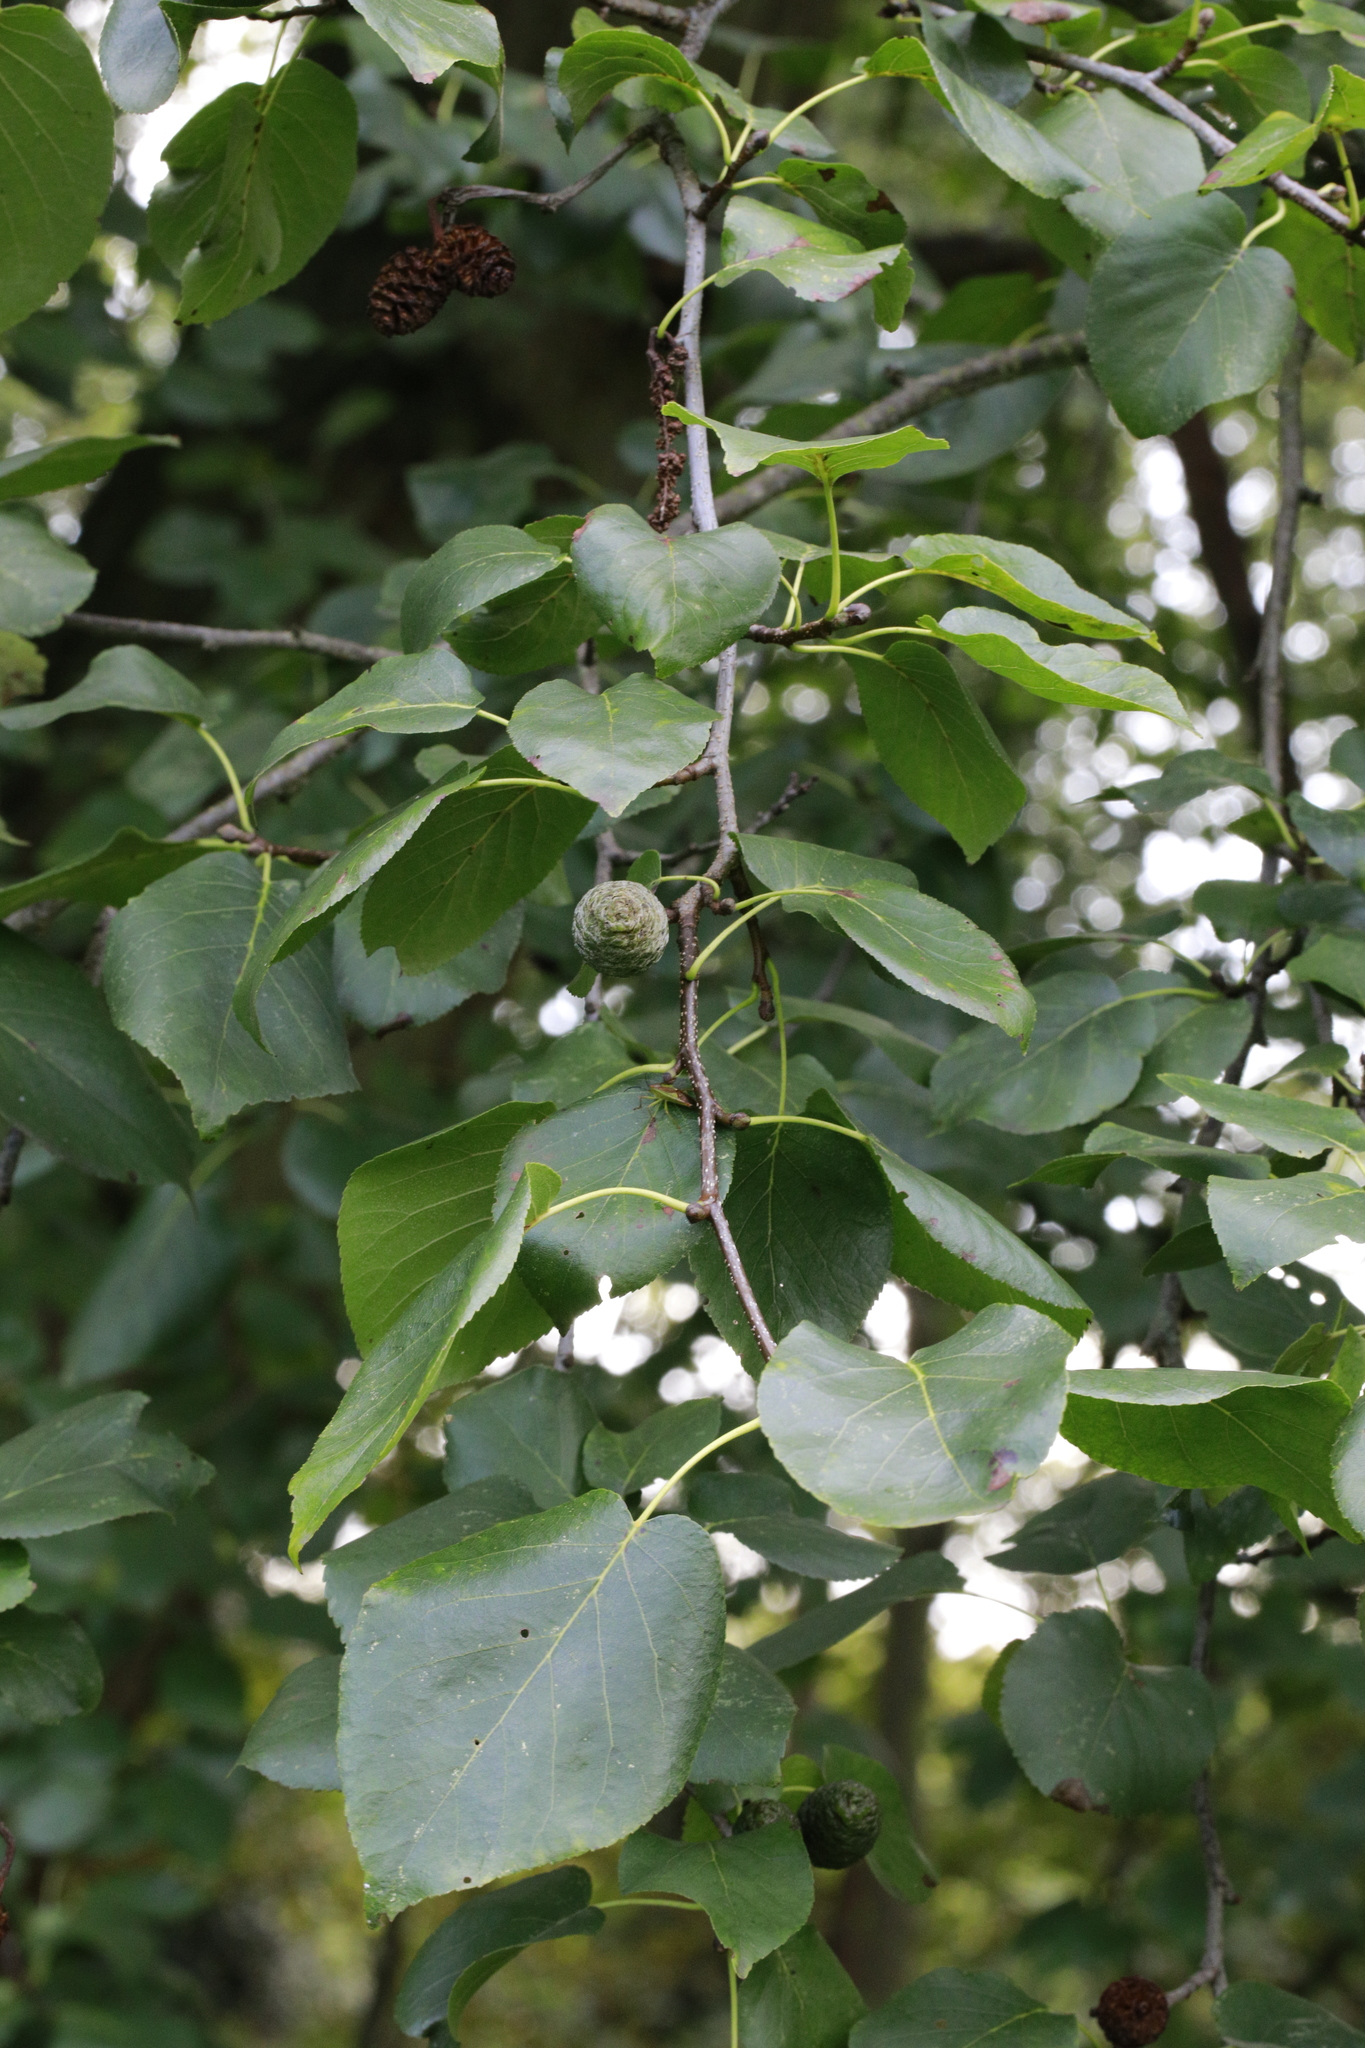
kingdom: Plantae
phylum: Tracheophyta
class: Magnoliopsida
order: Fagales
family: Betulaceae
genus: Alnus
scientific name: Alnus cordata
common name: Italian alder
